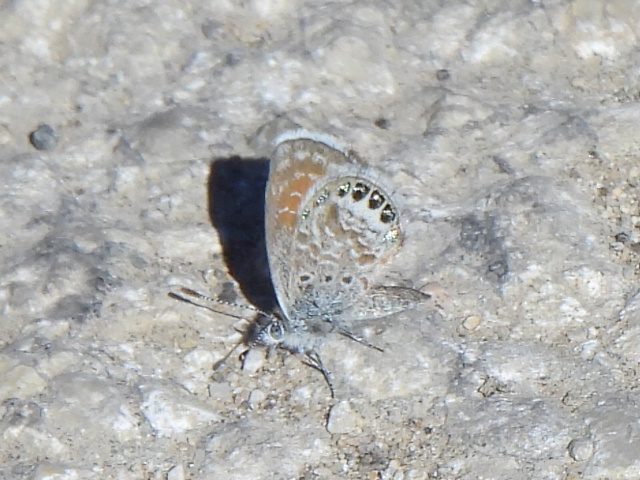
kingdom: Animalia
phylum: Arthropoda
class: Insecta
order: Lepidoptera
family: Lycaenidae
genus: Brephidium
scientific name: Brephidium exilis
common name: Pygmy blue
